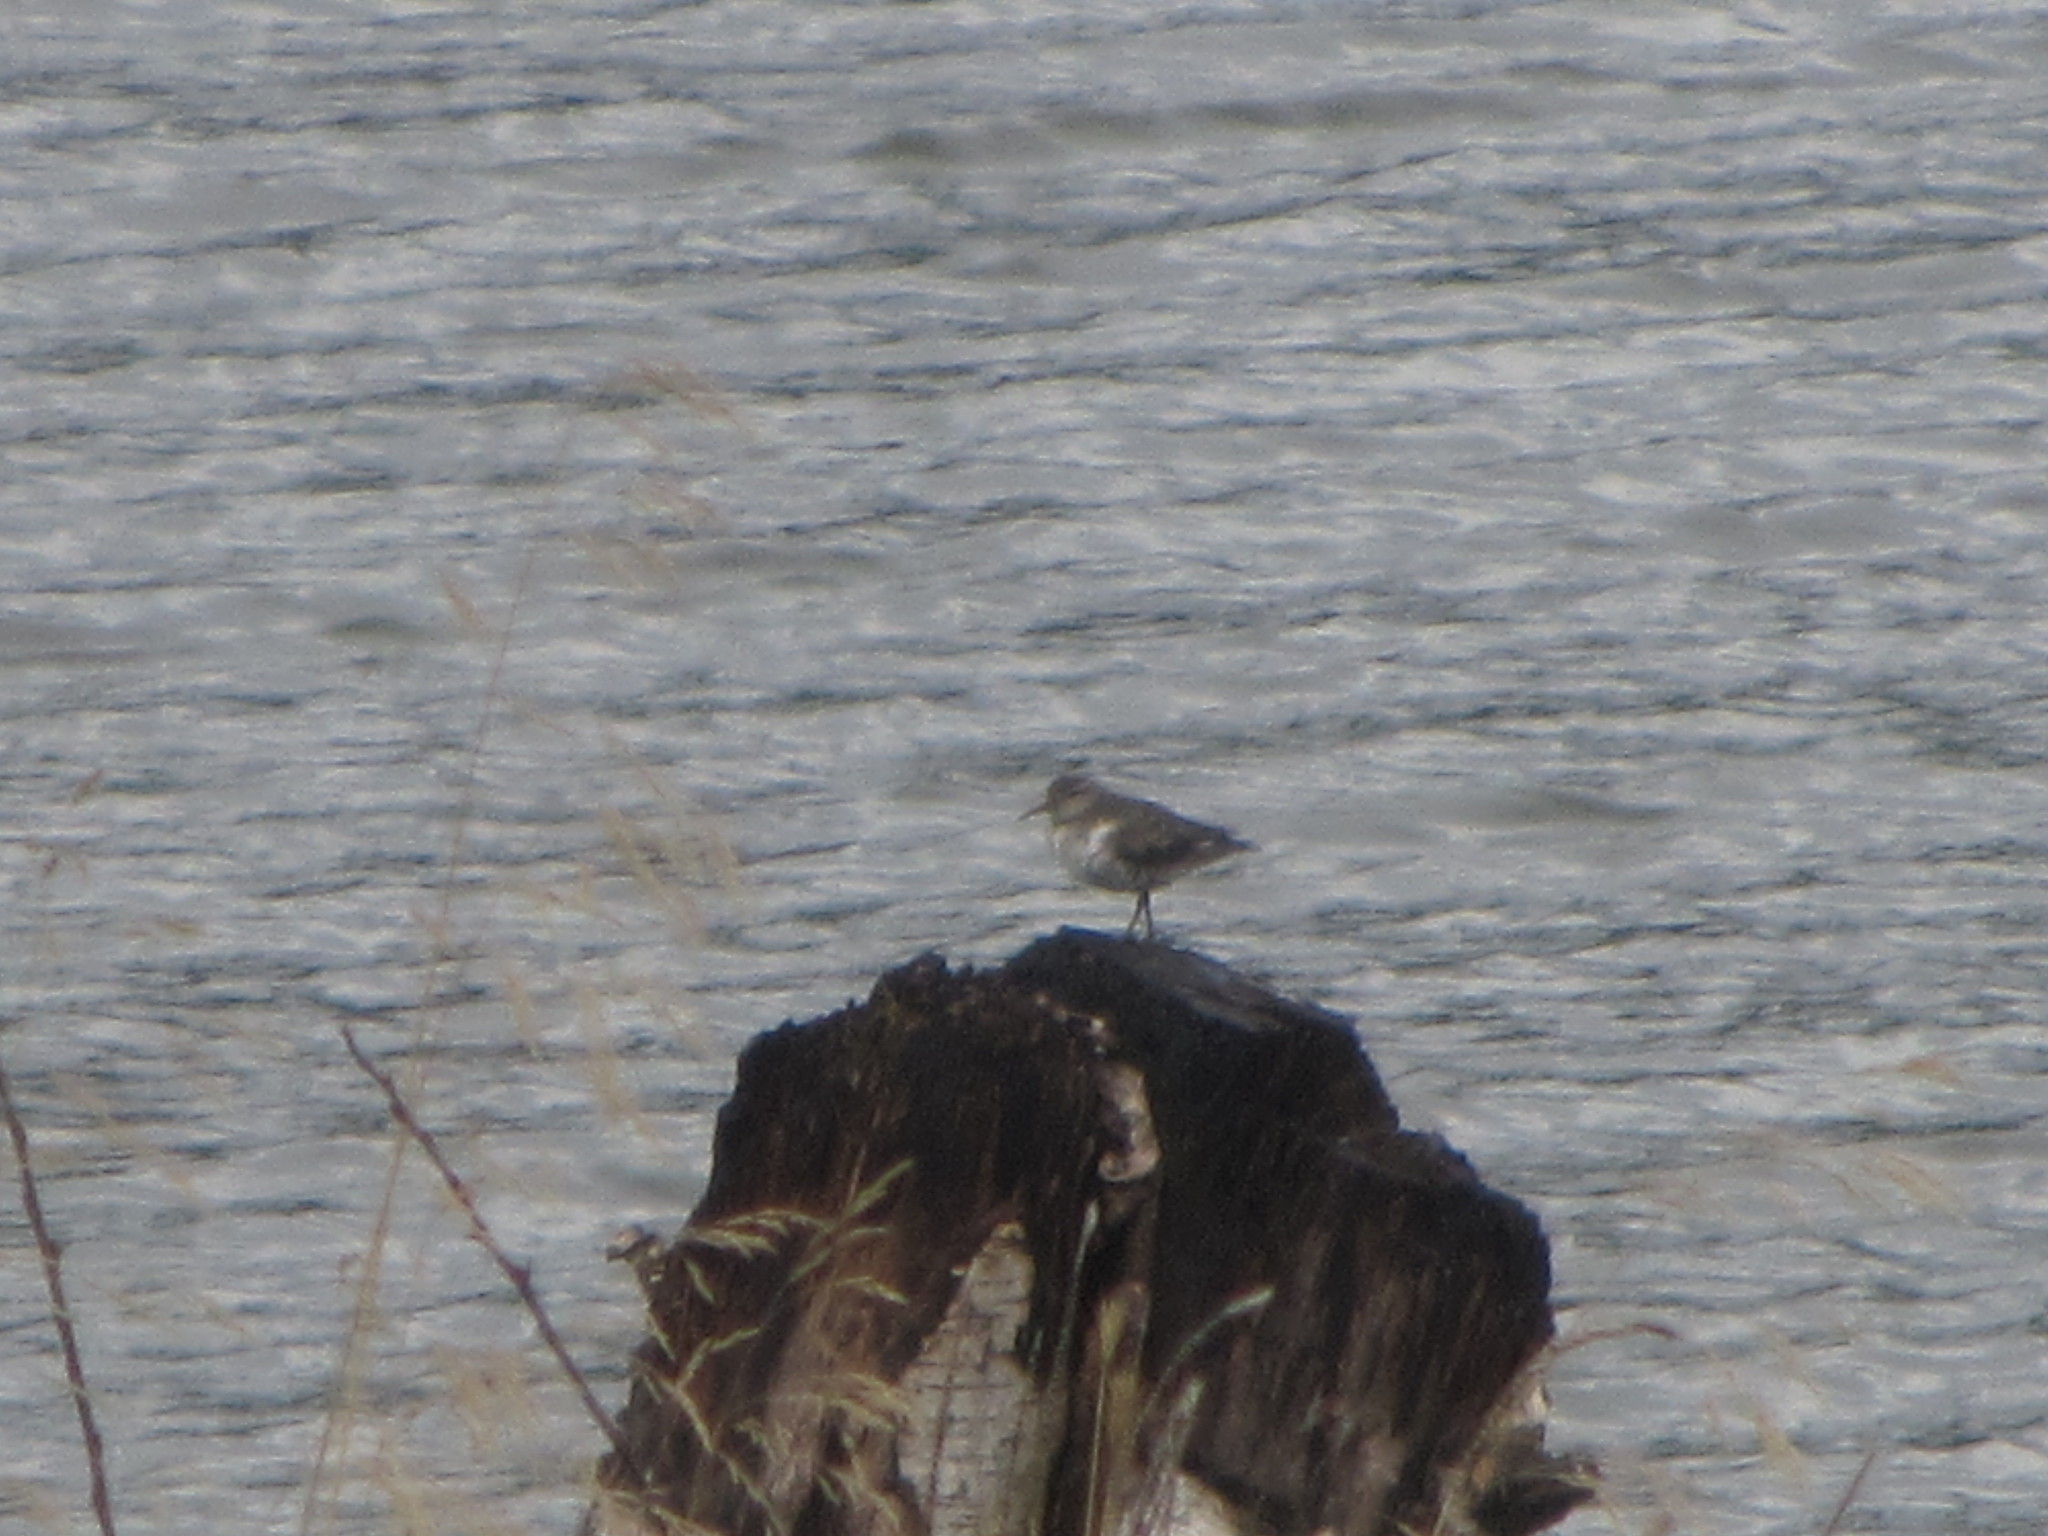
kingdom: Animalia
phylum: Chordata
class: Aves
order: Charadriiformes
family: Scolopacidae
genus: Actitis
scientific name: Actitis macularius
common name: Spotted sandpiper
